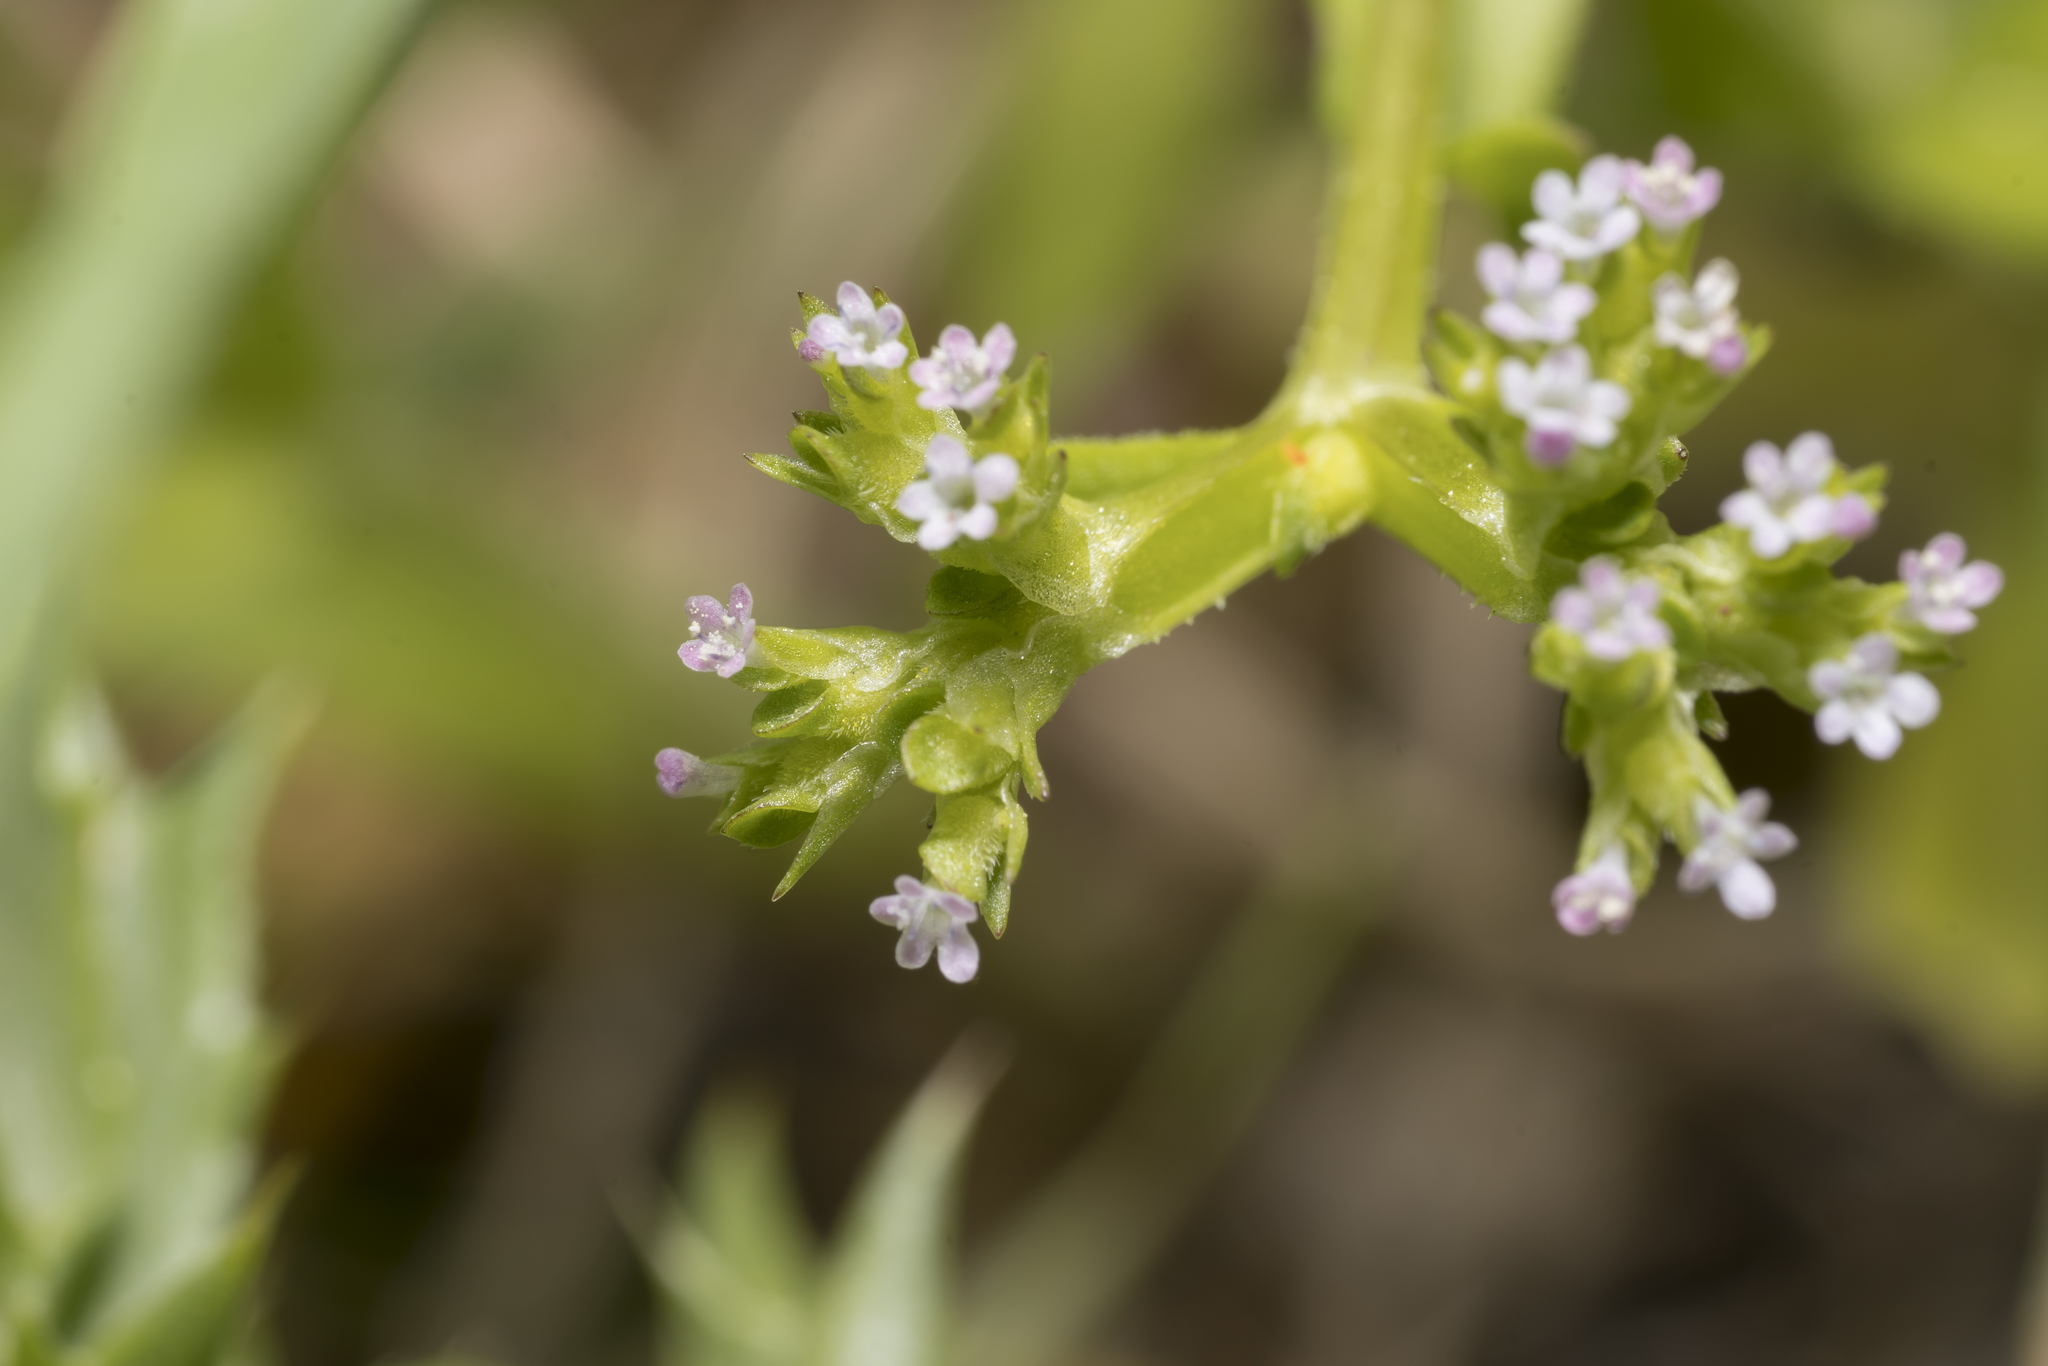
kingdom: Plantae
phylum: Tracheophyta
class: Magnoliopsida
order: Dipsacales
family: Caprifoliaceae
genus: Valerianella
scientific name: Valerianella muricata
